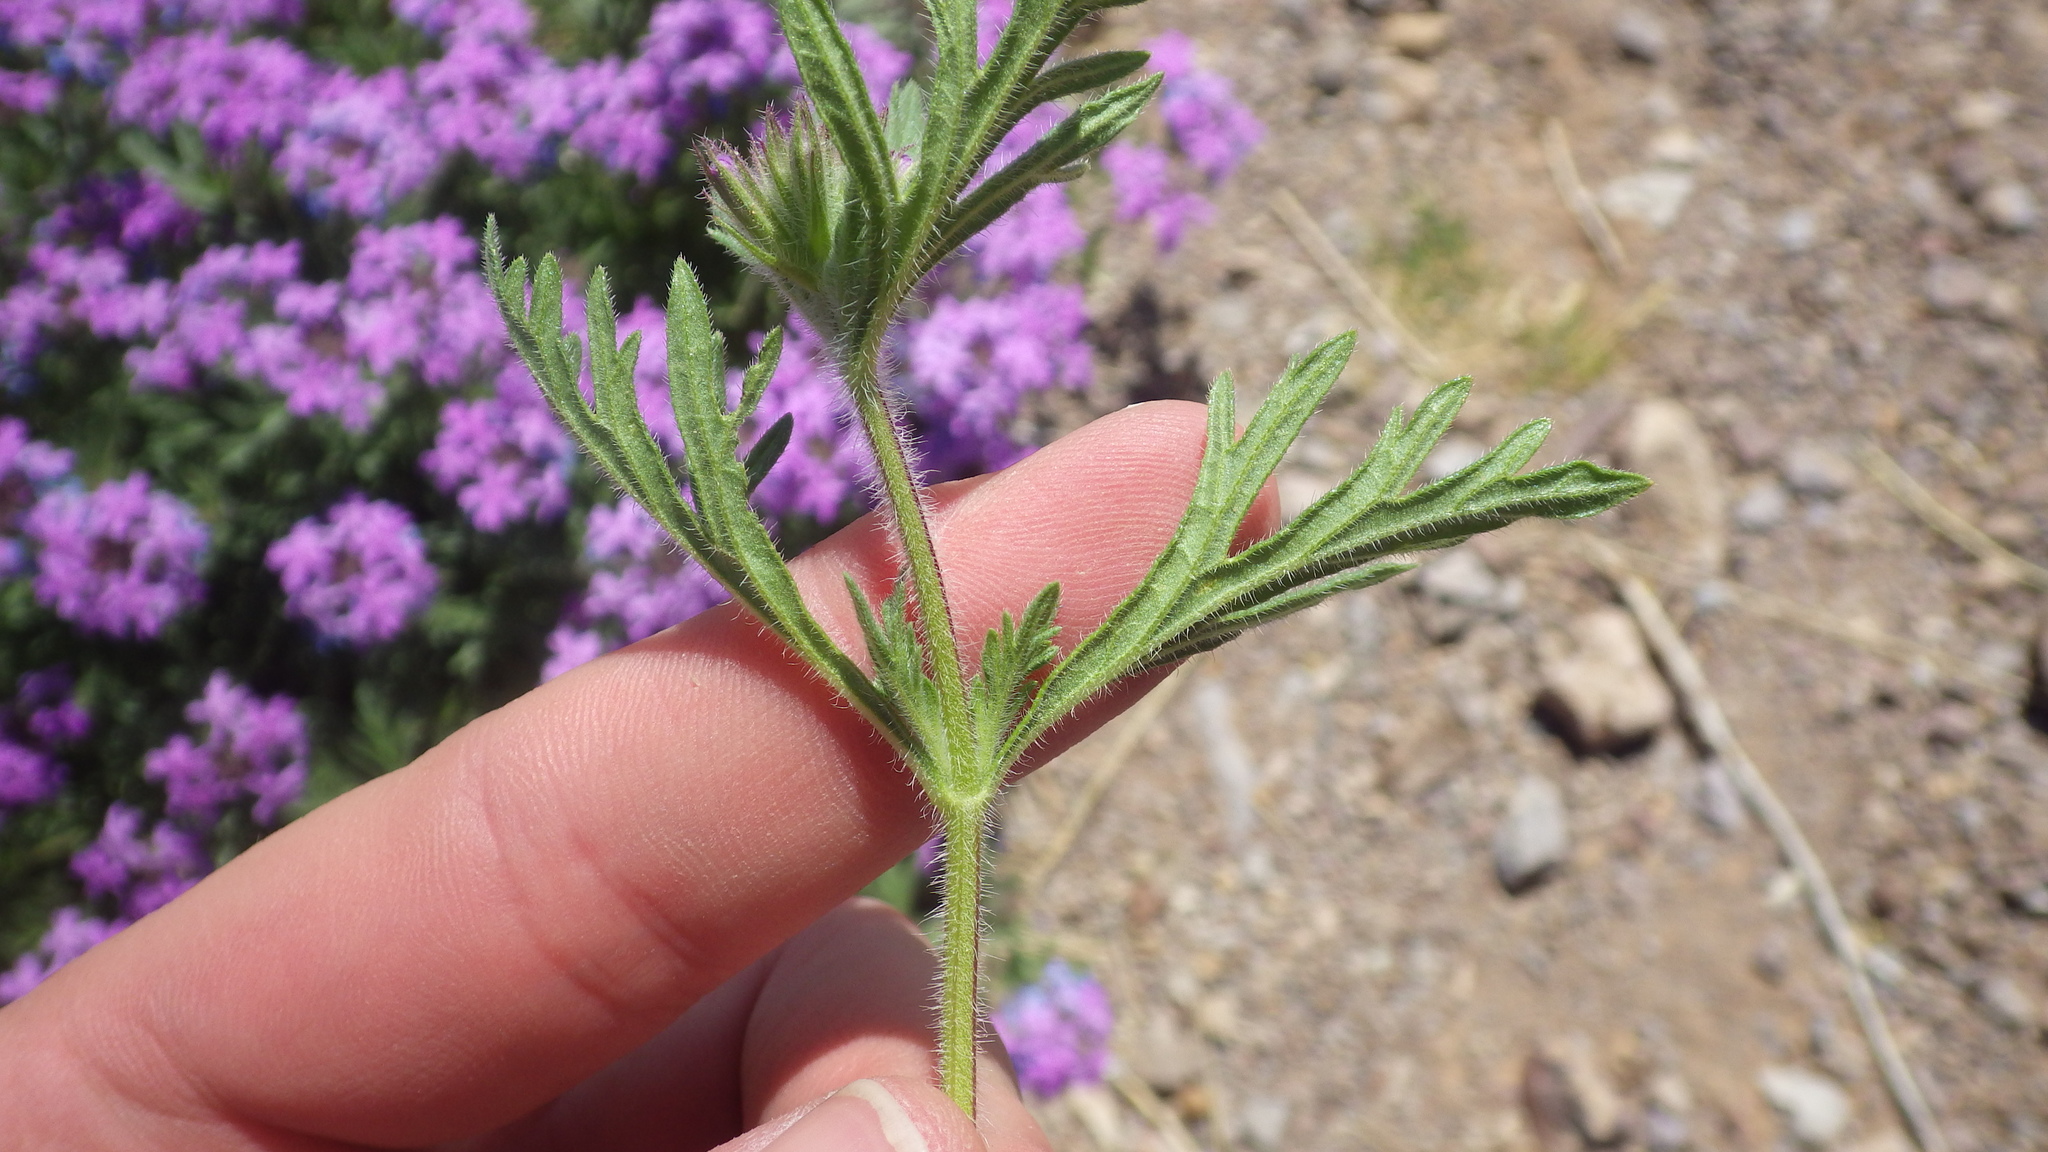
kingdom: Plantae
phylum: Tracheophyta
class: Magnoliopsida
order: Lamiales
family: Verbenaceae
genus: Verbena
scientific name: Verbena bipinnatifida
